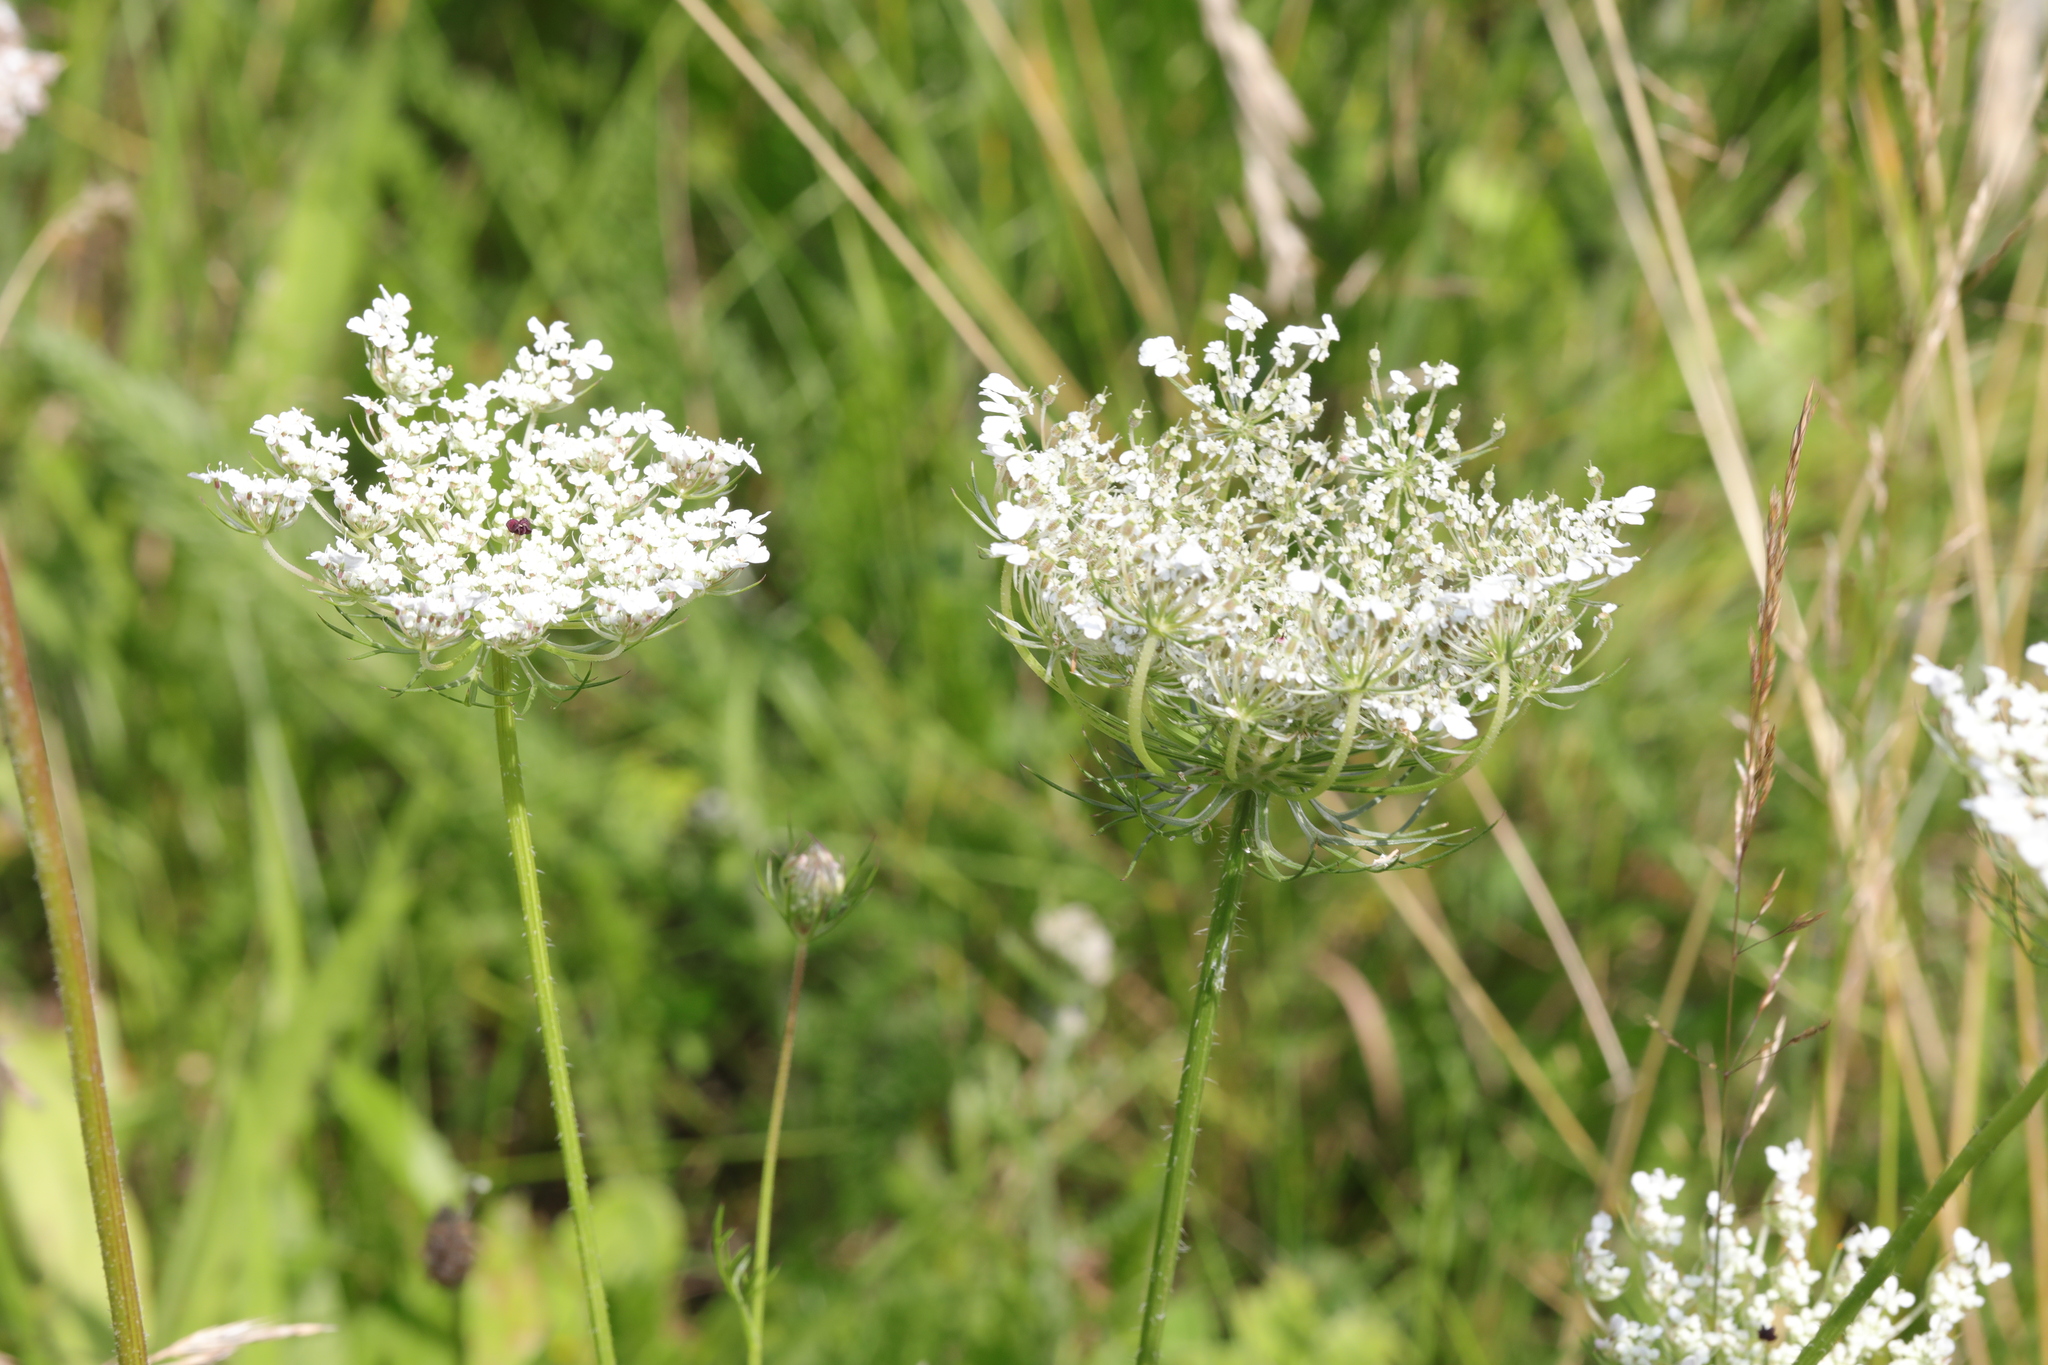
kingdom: Plantae
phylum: Tracheophyta
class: Magnoliopsida
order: Apiales
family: Apiaceae
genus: Daucus
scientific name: Daucus carota
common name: Wild carrot
